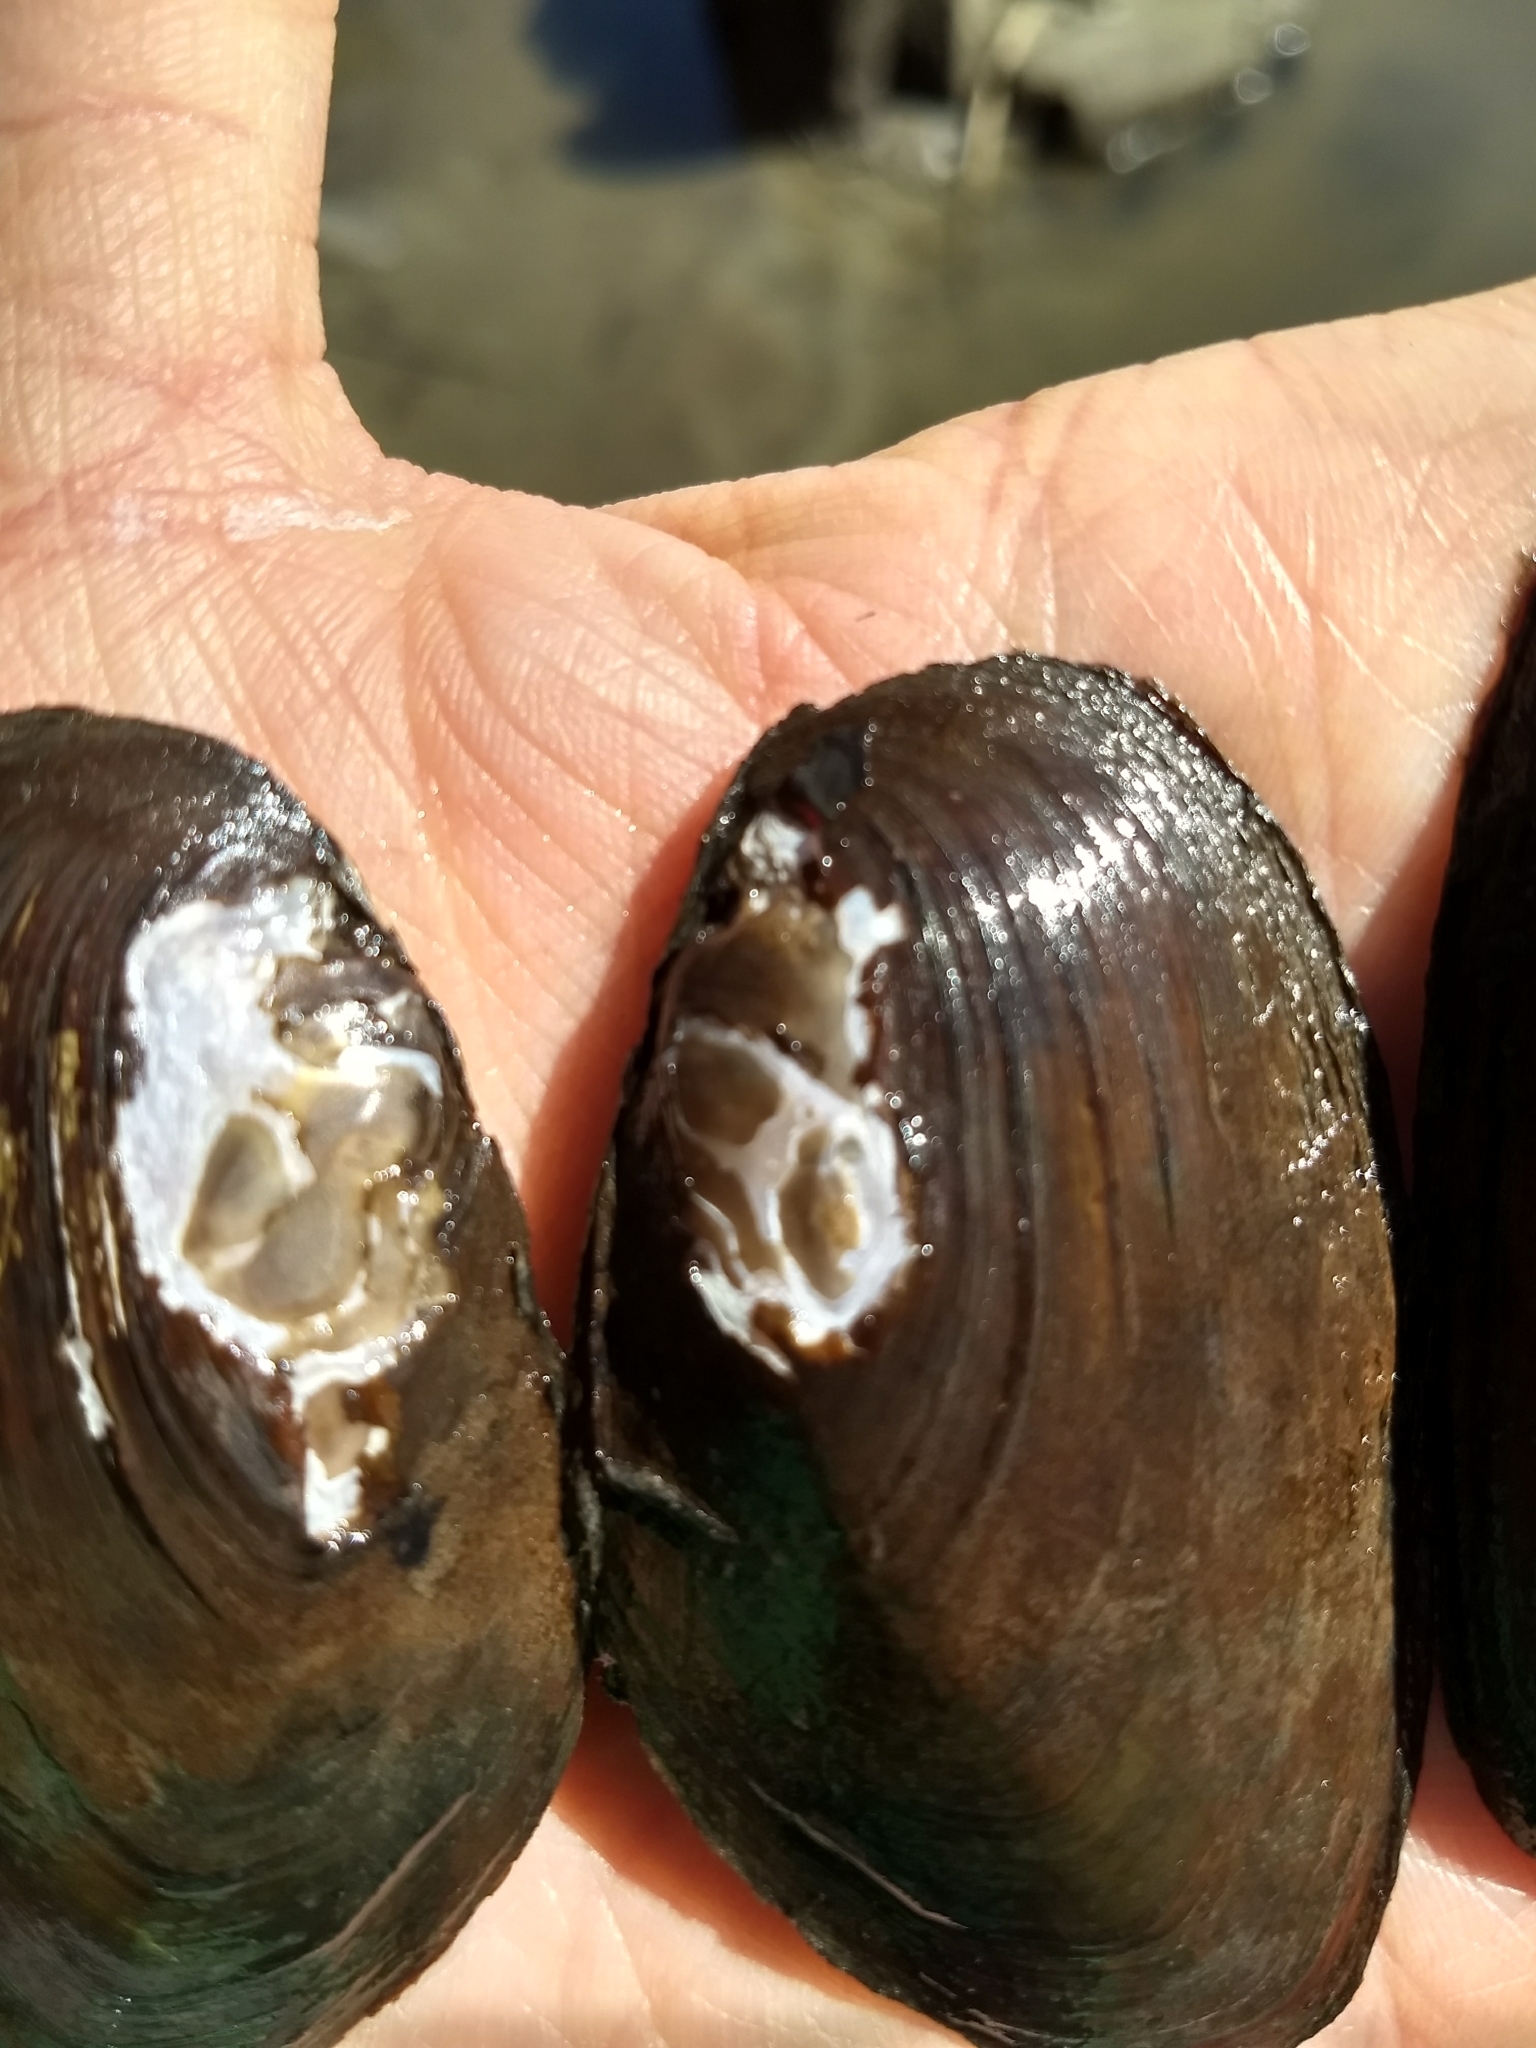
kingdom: Animalia
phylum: Mollusca
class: Bivalvia
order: Unionida
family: Unionidae
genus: Elliptio
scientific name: Elliptio complanata
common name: Eastern elliptio
